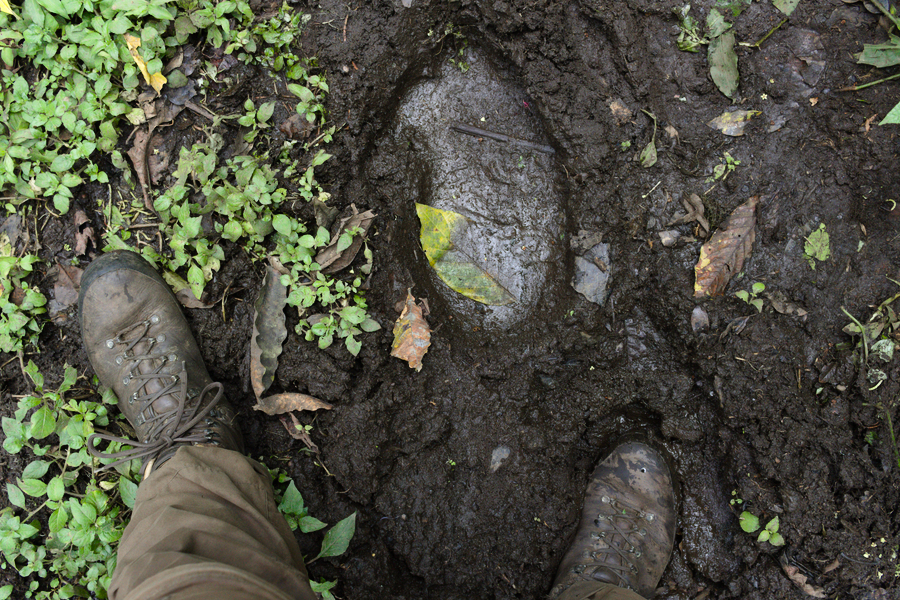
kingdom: Animalia
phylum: Chordata
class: Mammalia
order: Proboscidea
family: Elephantidae
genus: Loxodonta
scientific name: Loxodonta cyclotis
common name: African forest elephant
